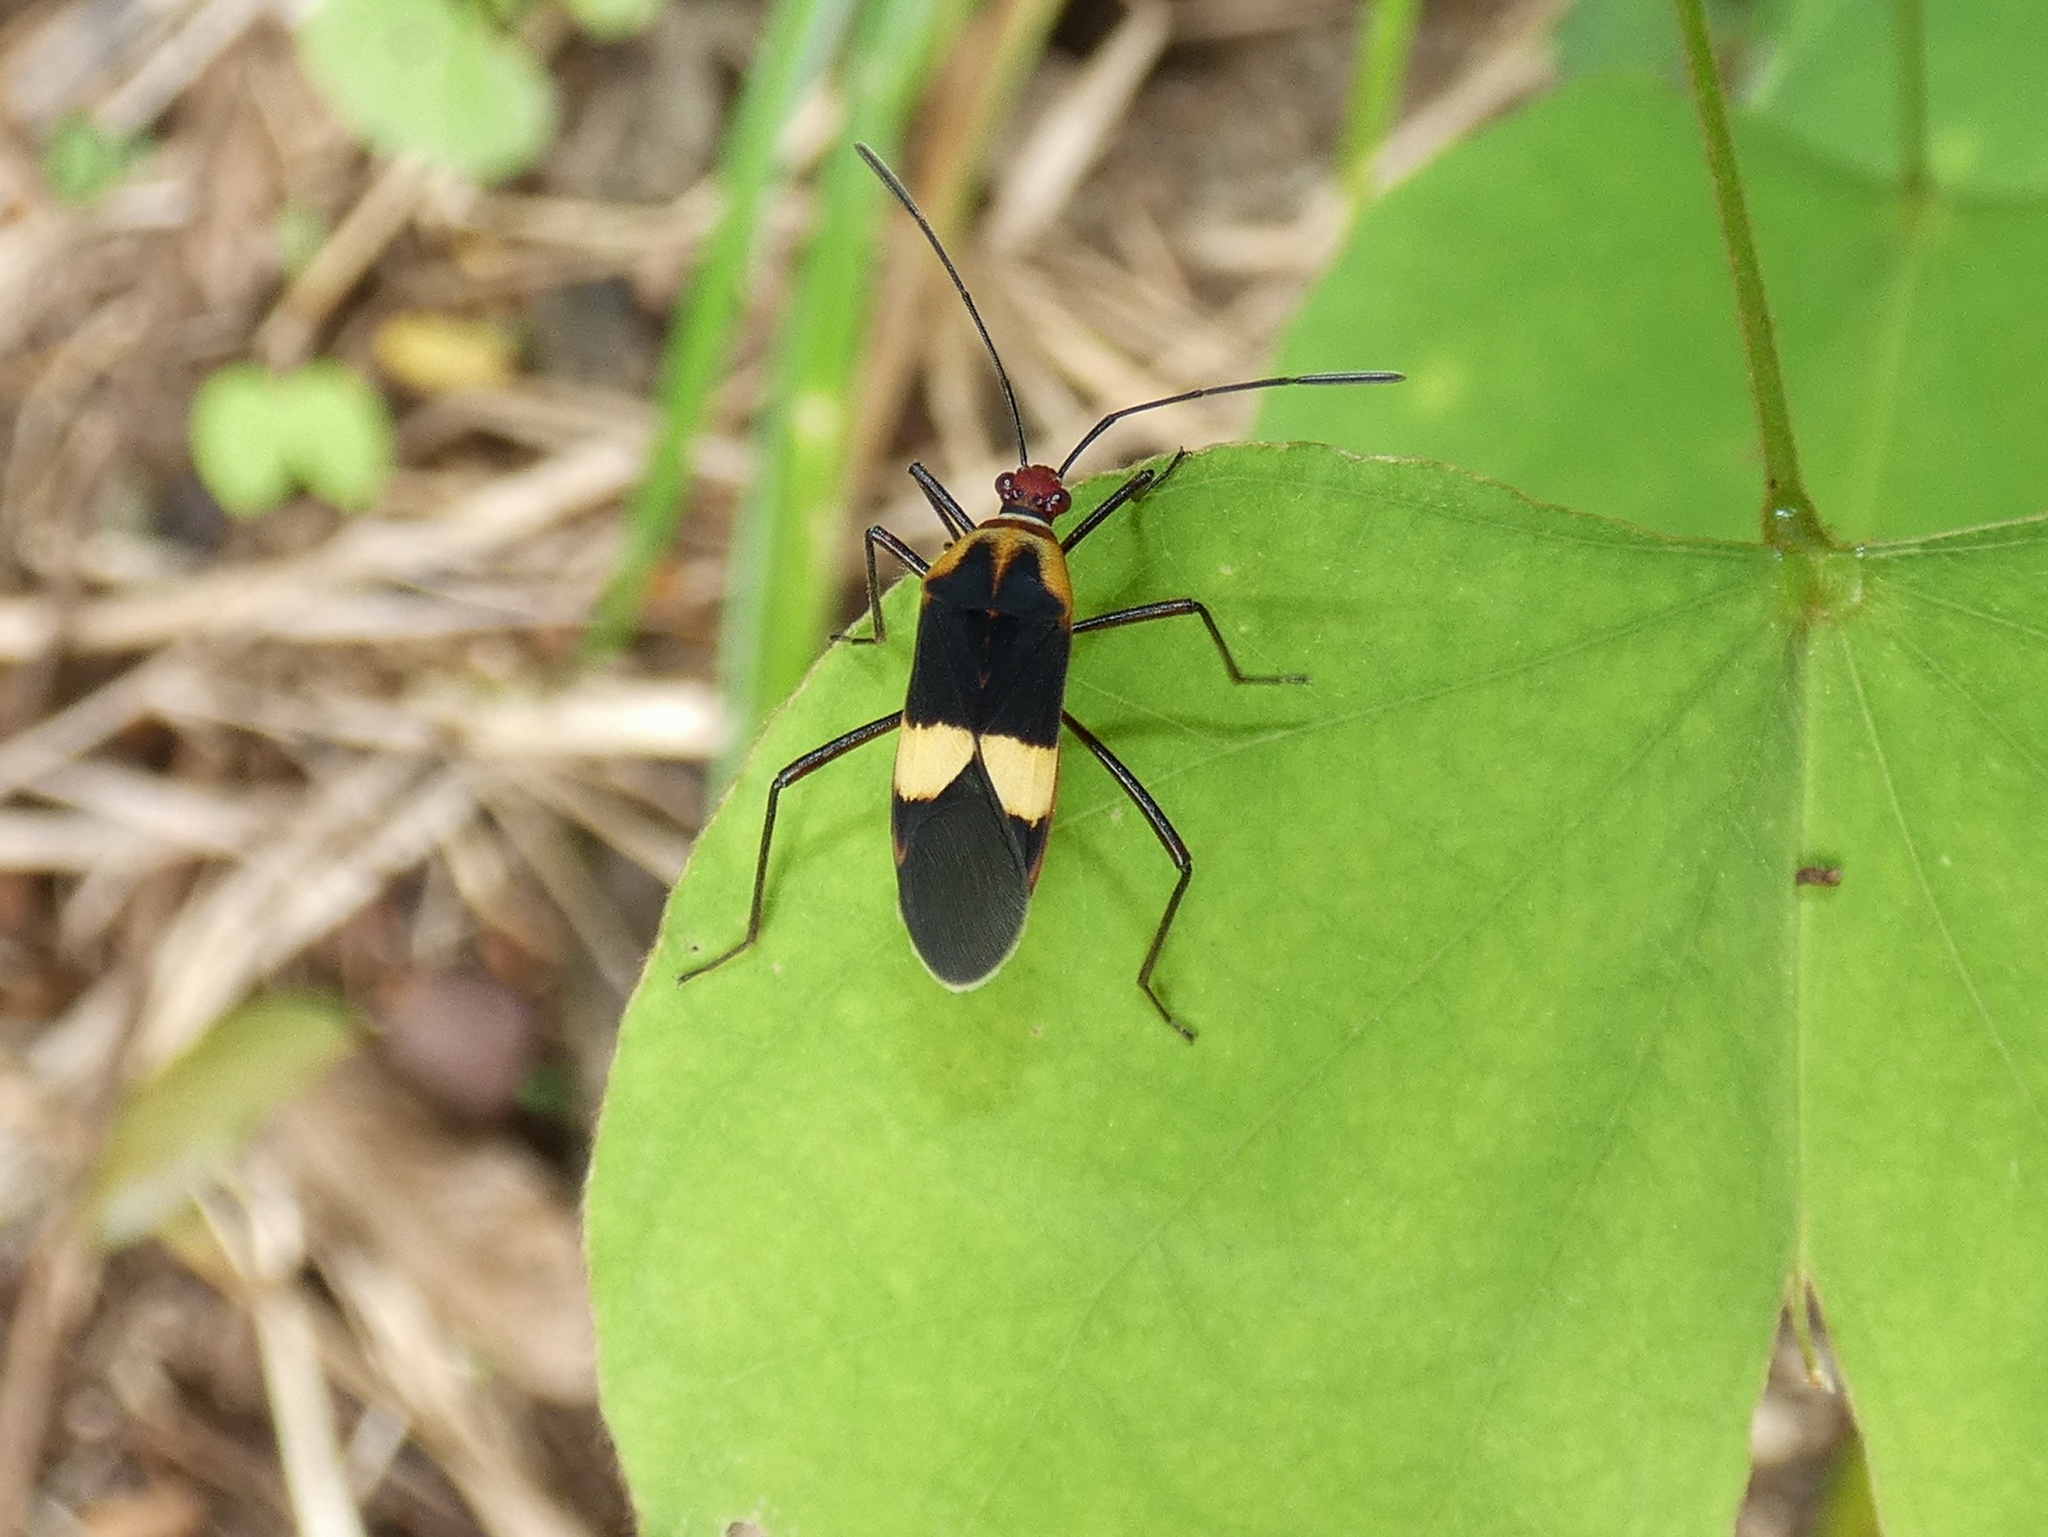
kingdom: Animalia
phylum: Arthropoda
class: Insecta
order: Hemiptera
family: Coreidae
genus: Hypselonotus
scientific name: Hypselonotus interruptus
